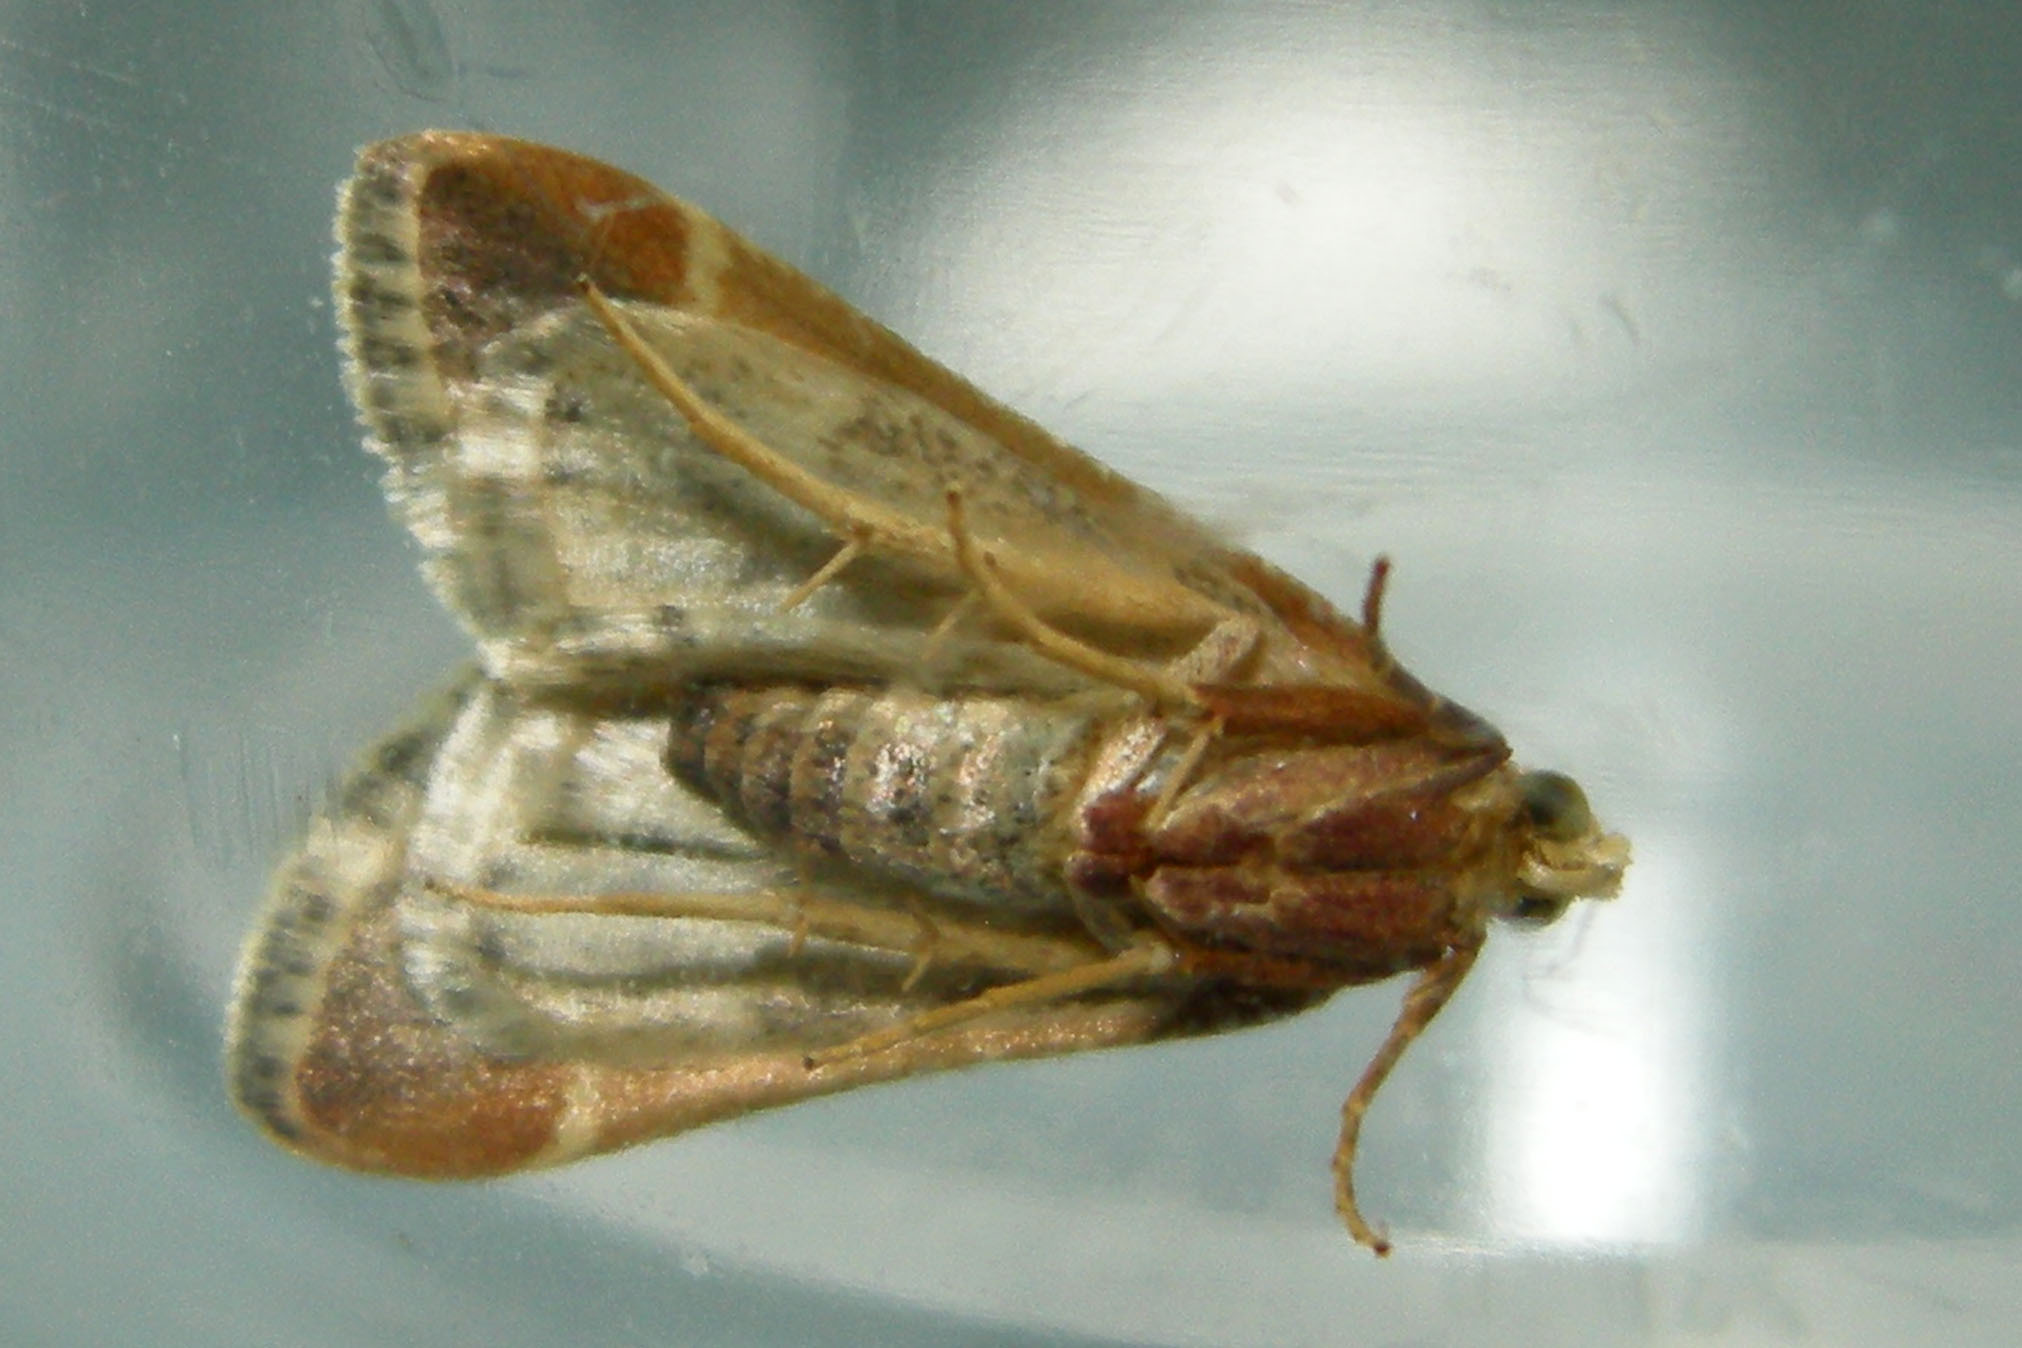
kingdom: Animalia
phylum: Arthropoda
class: Insecta
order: Lepidoptera
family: Pyralidae
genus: Pyralis
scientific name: Pyralis farinalis
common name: Meal moth
